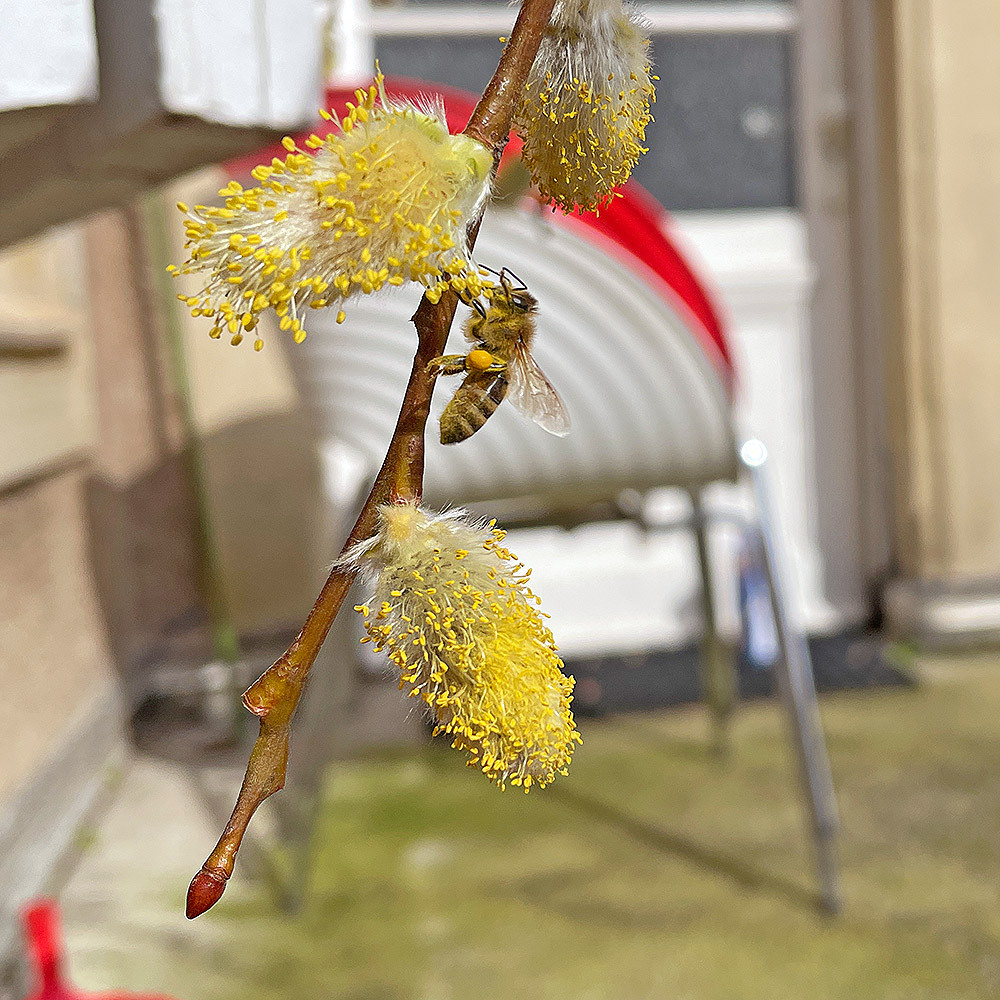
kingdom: Animalia
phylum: Arthropoda
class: Insecta
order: Hymenoptera
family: Apidae
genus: Apis
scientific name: Apis mellifera
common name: Honey bee
